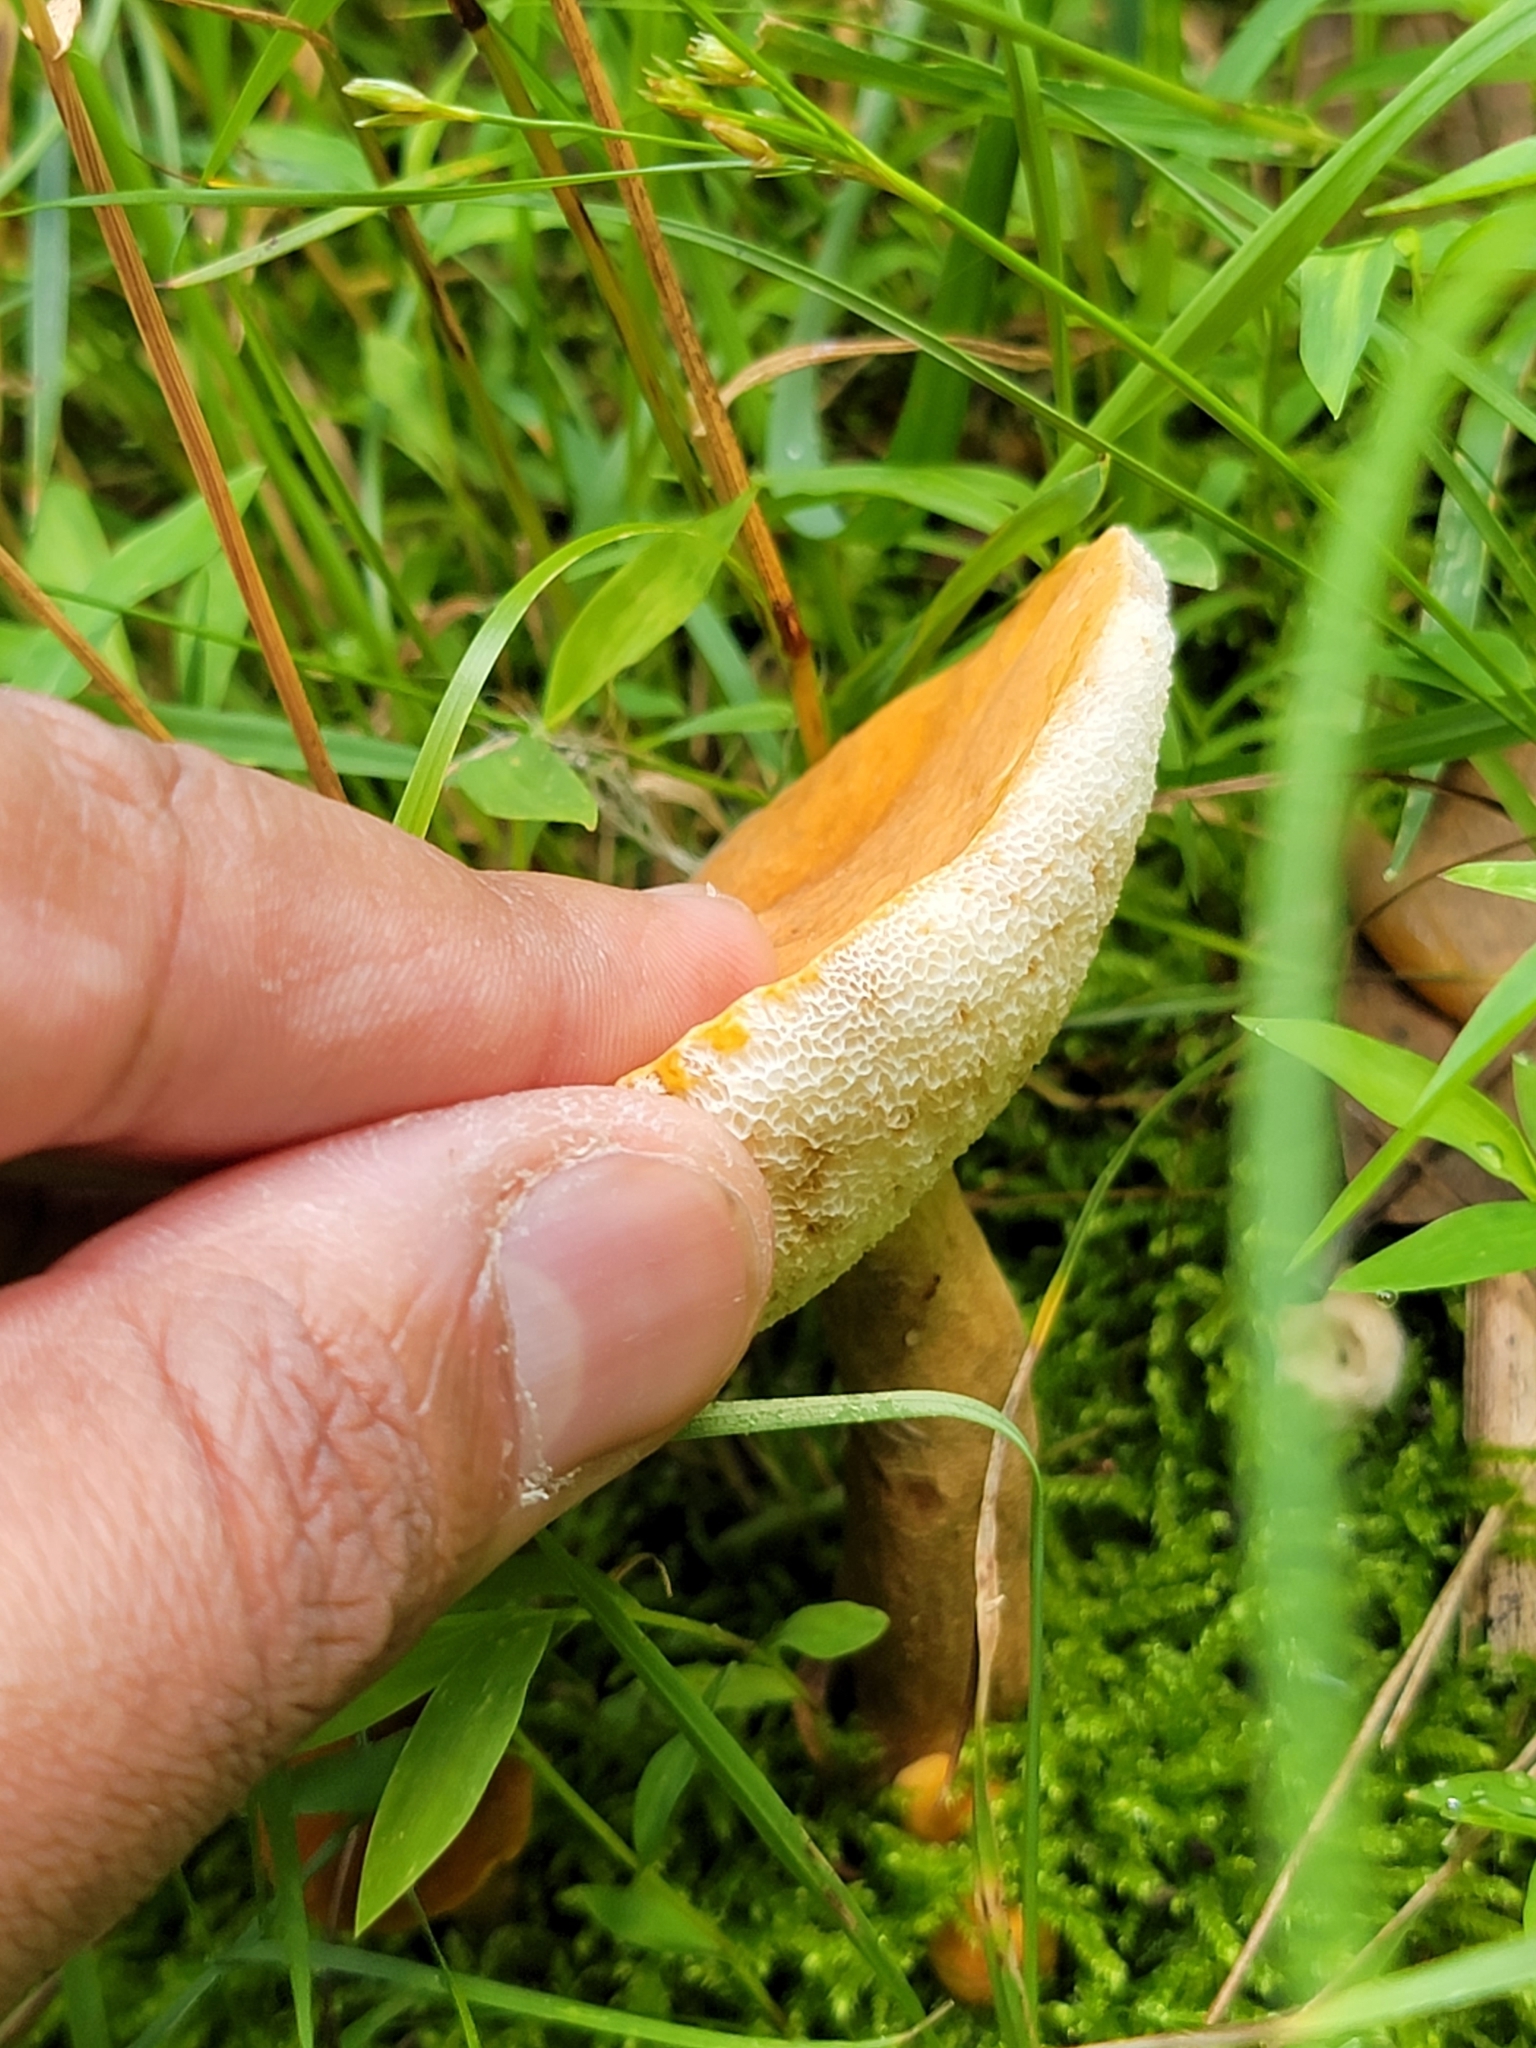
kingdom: Fungi
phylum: Basidiomycota
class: Agaricomycetes
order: Boletales
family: Gyroporaceae
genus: Gyroporus
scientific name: Gyroporus castaneus
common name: Chestnut bolete
